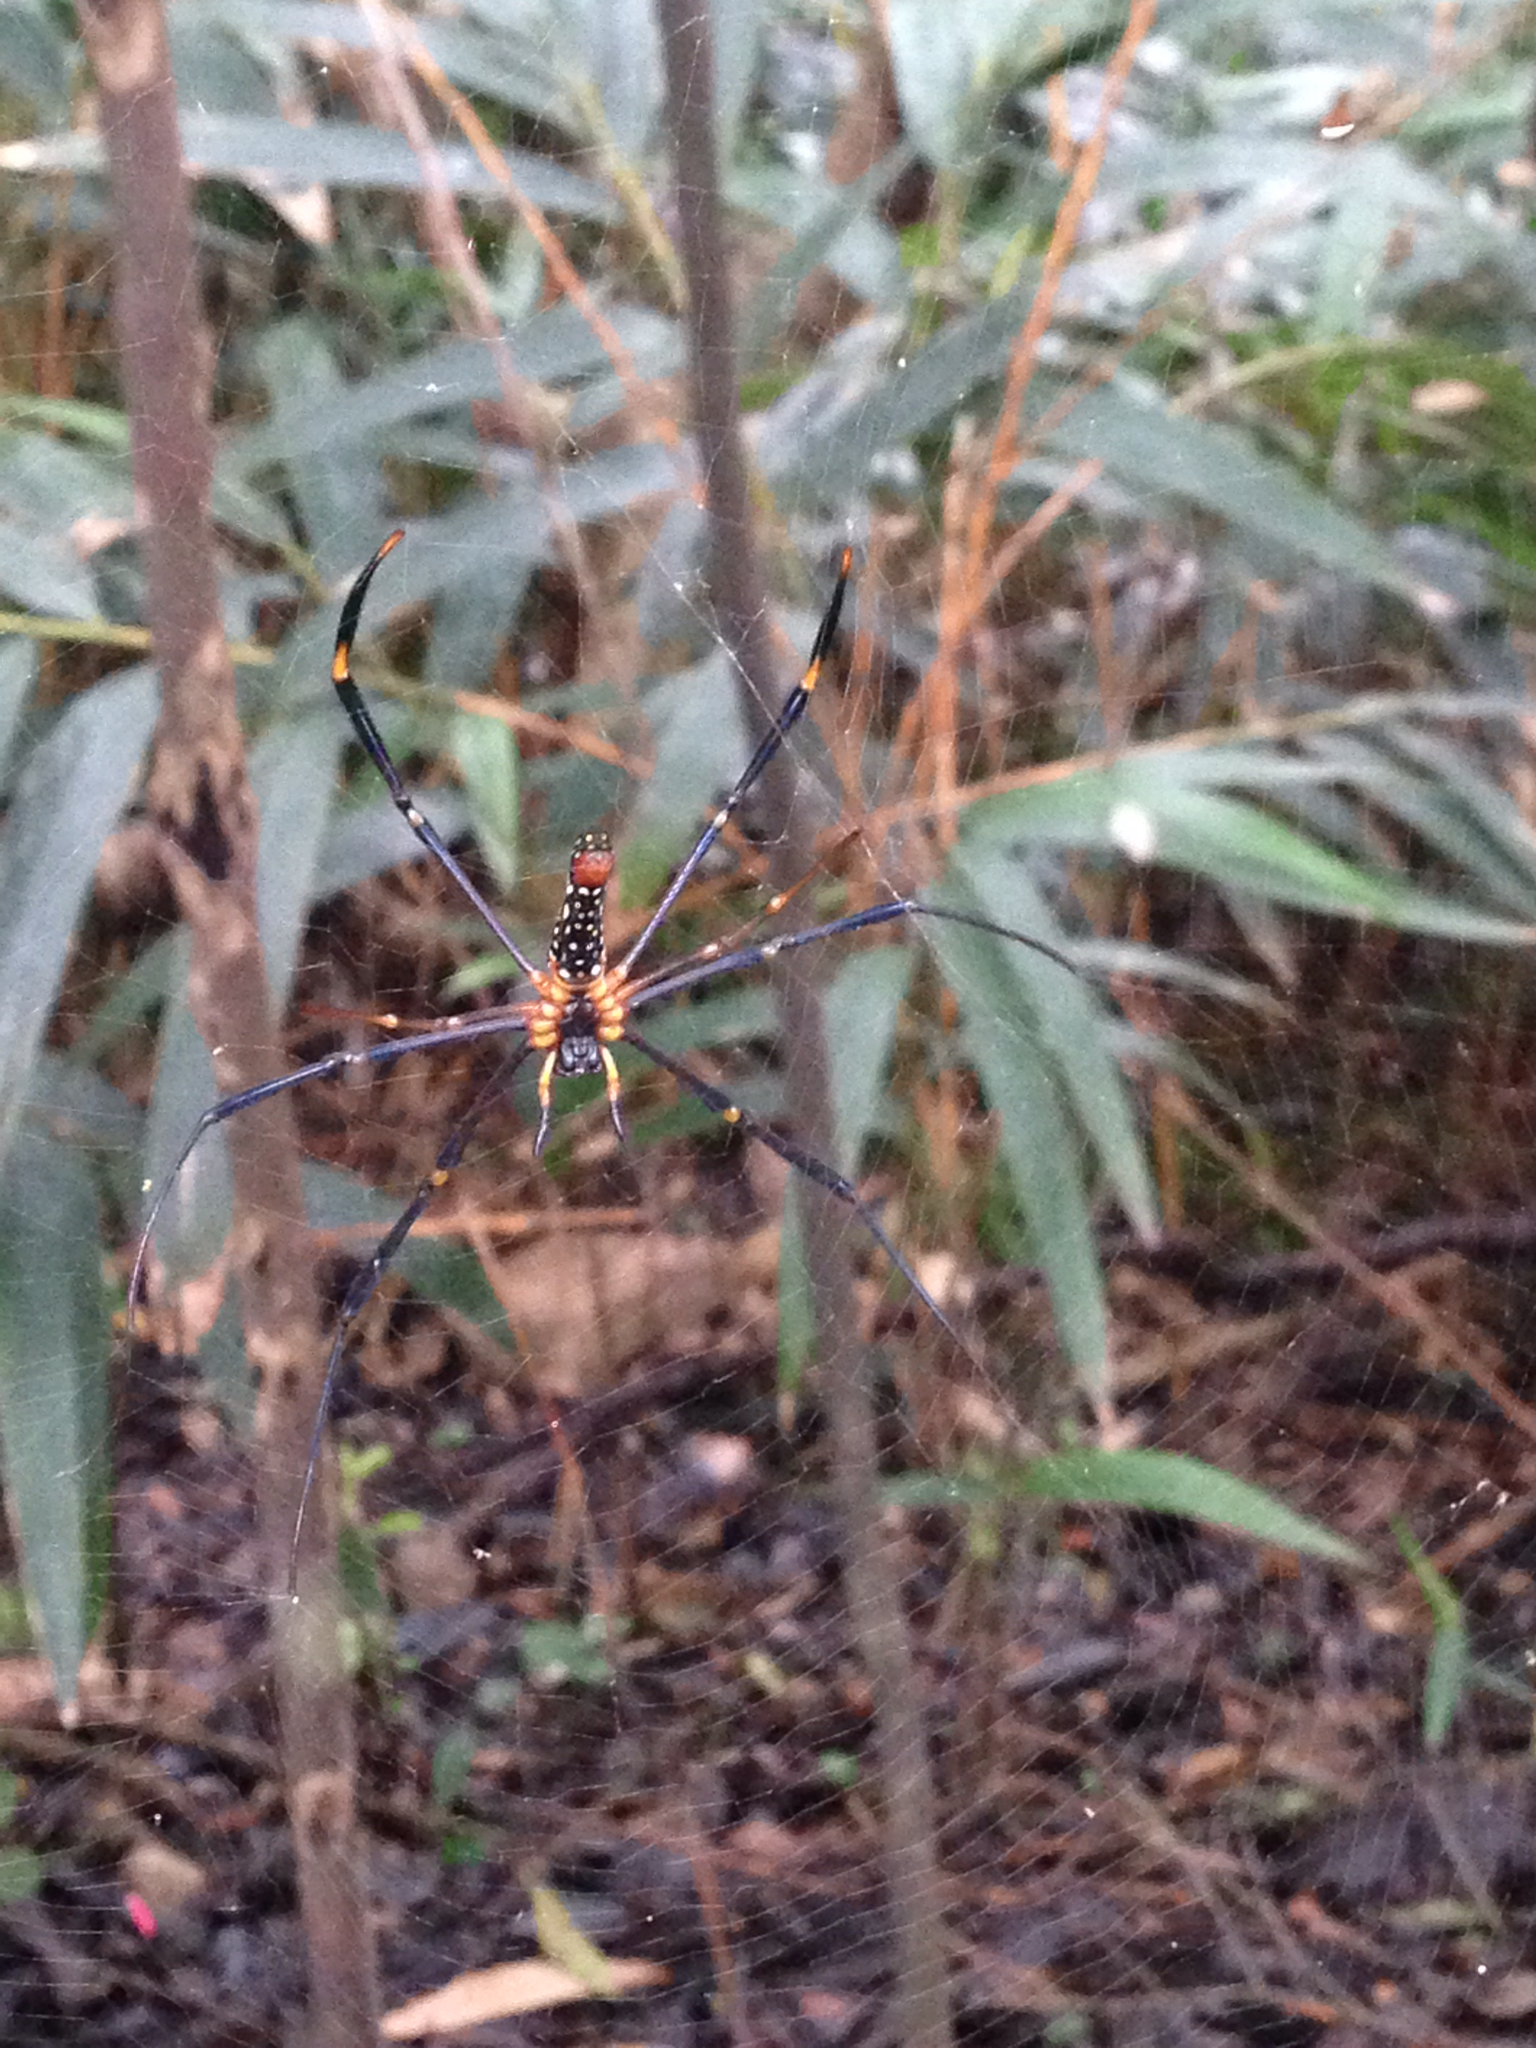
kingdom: Animalia
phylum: Arthropoda
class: Arachnida
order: Araneae
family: Araneidae
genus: Nephila
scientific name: Nephila pilipes
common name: Giant golden orb weaver
